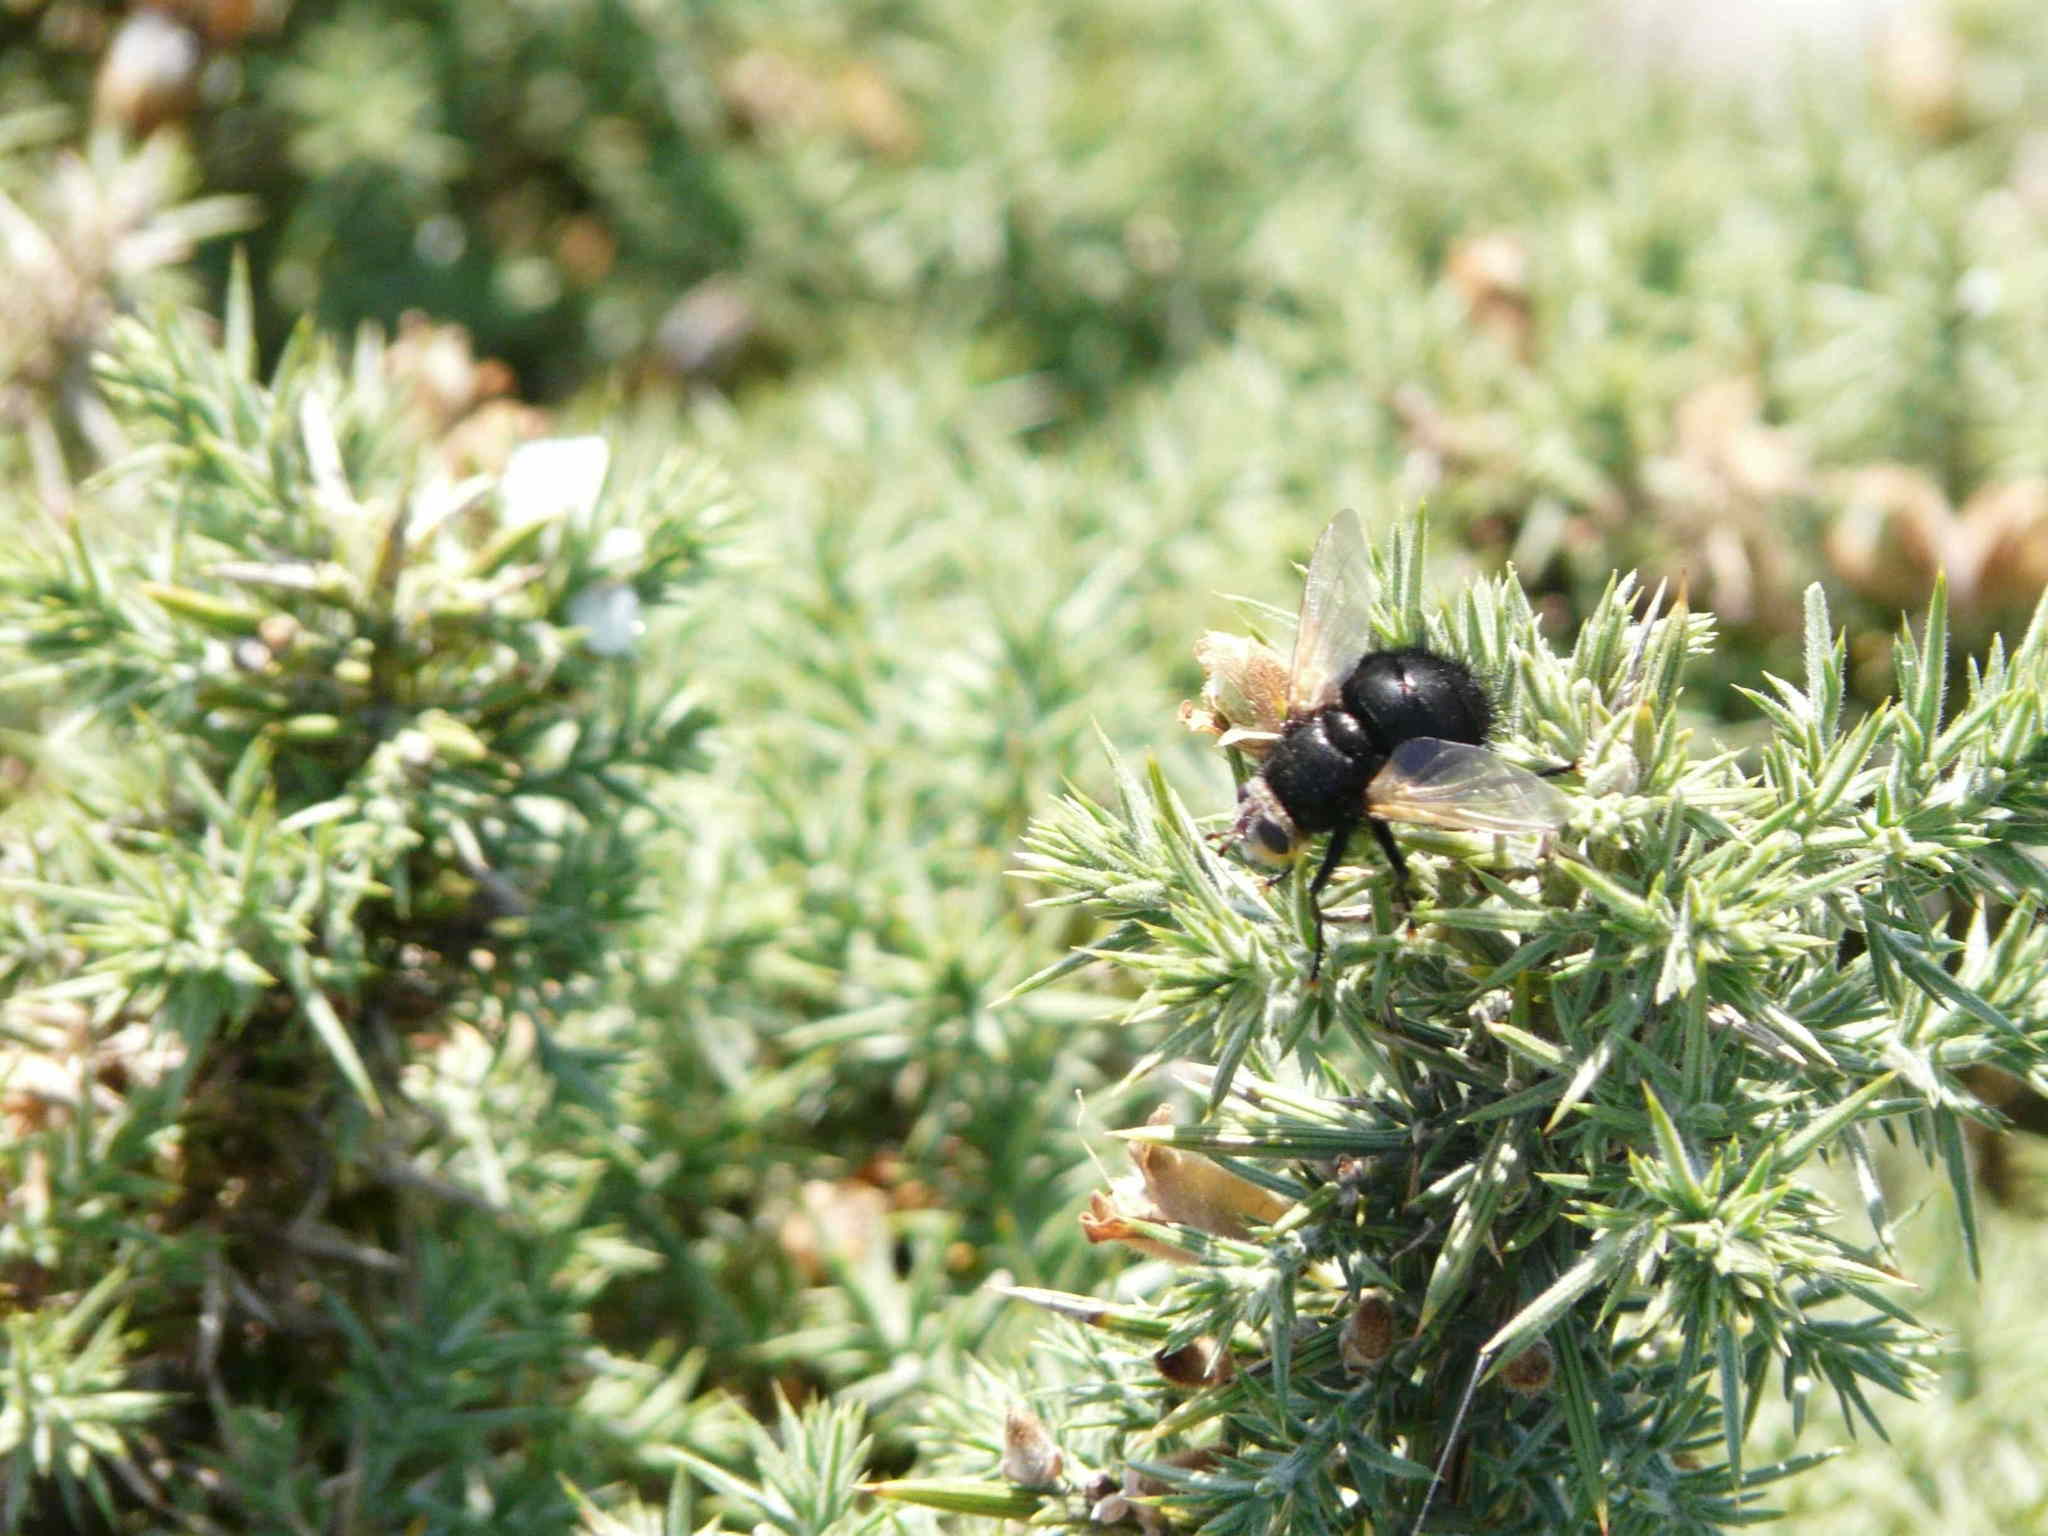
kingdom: Animalia
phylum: Arthropoda
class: Insecta
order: Diptera
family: Tachinidae
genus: Tachina
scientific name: Tachina grossa
